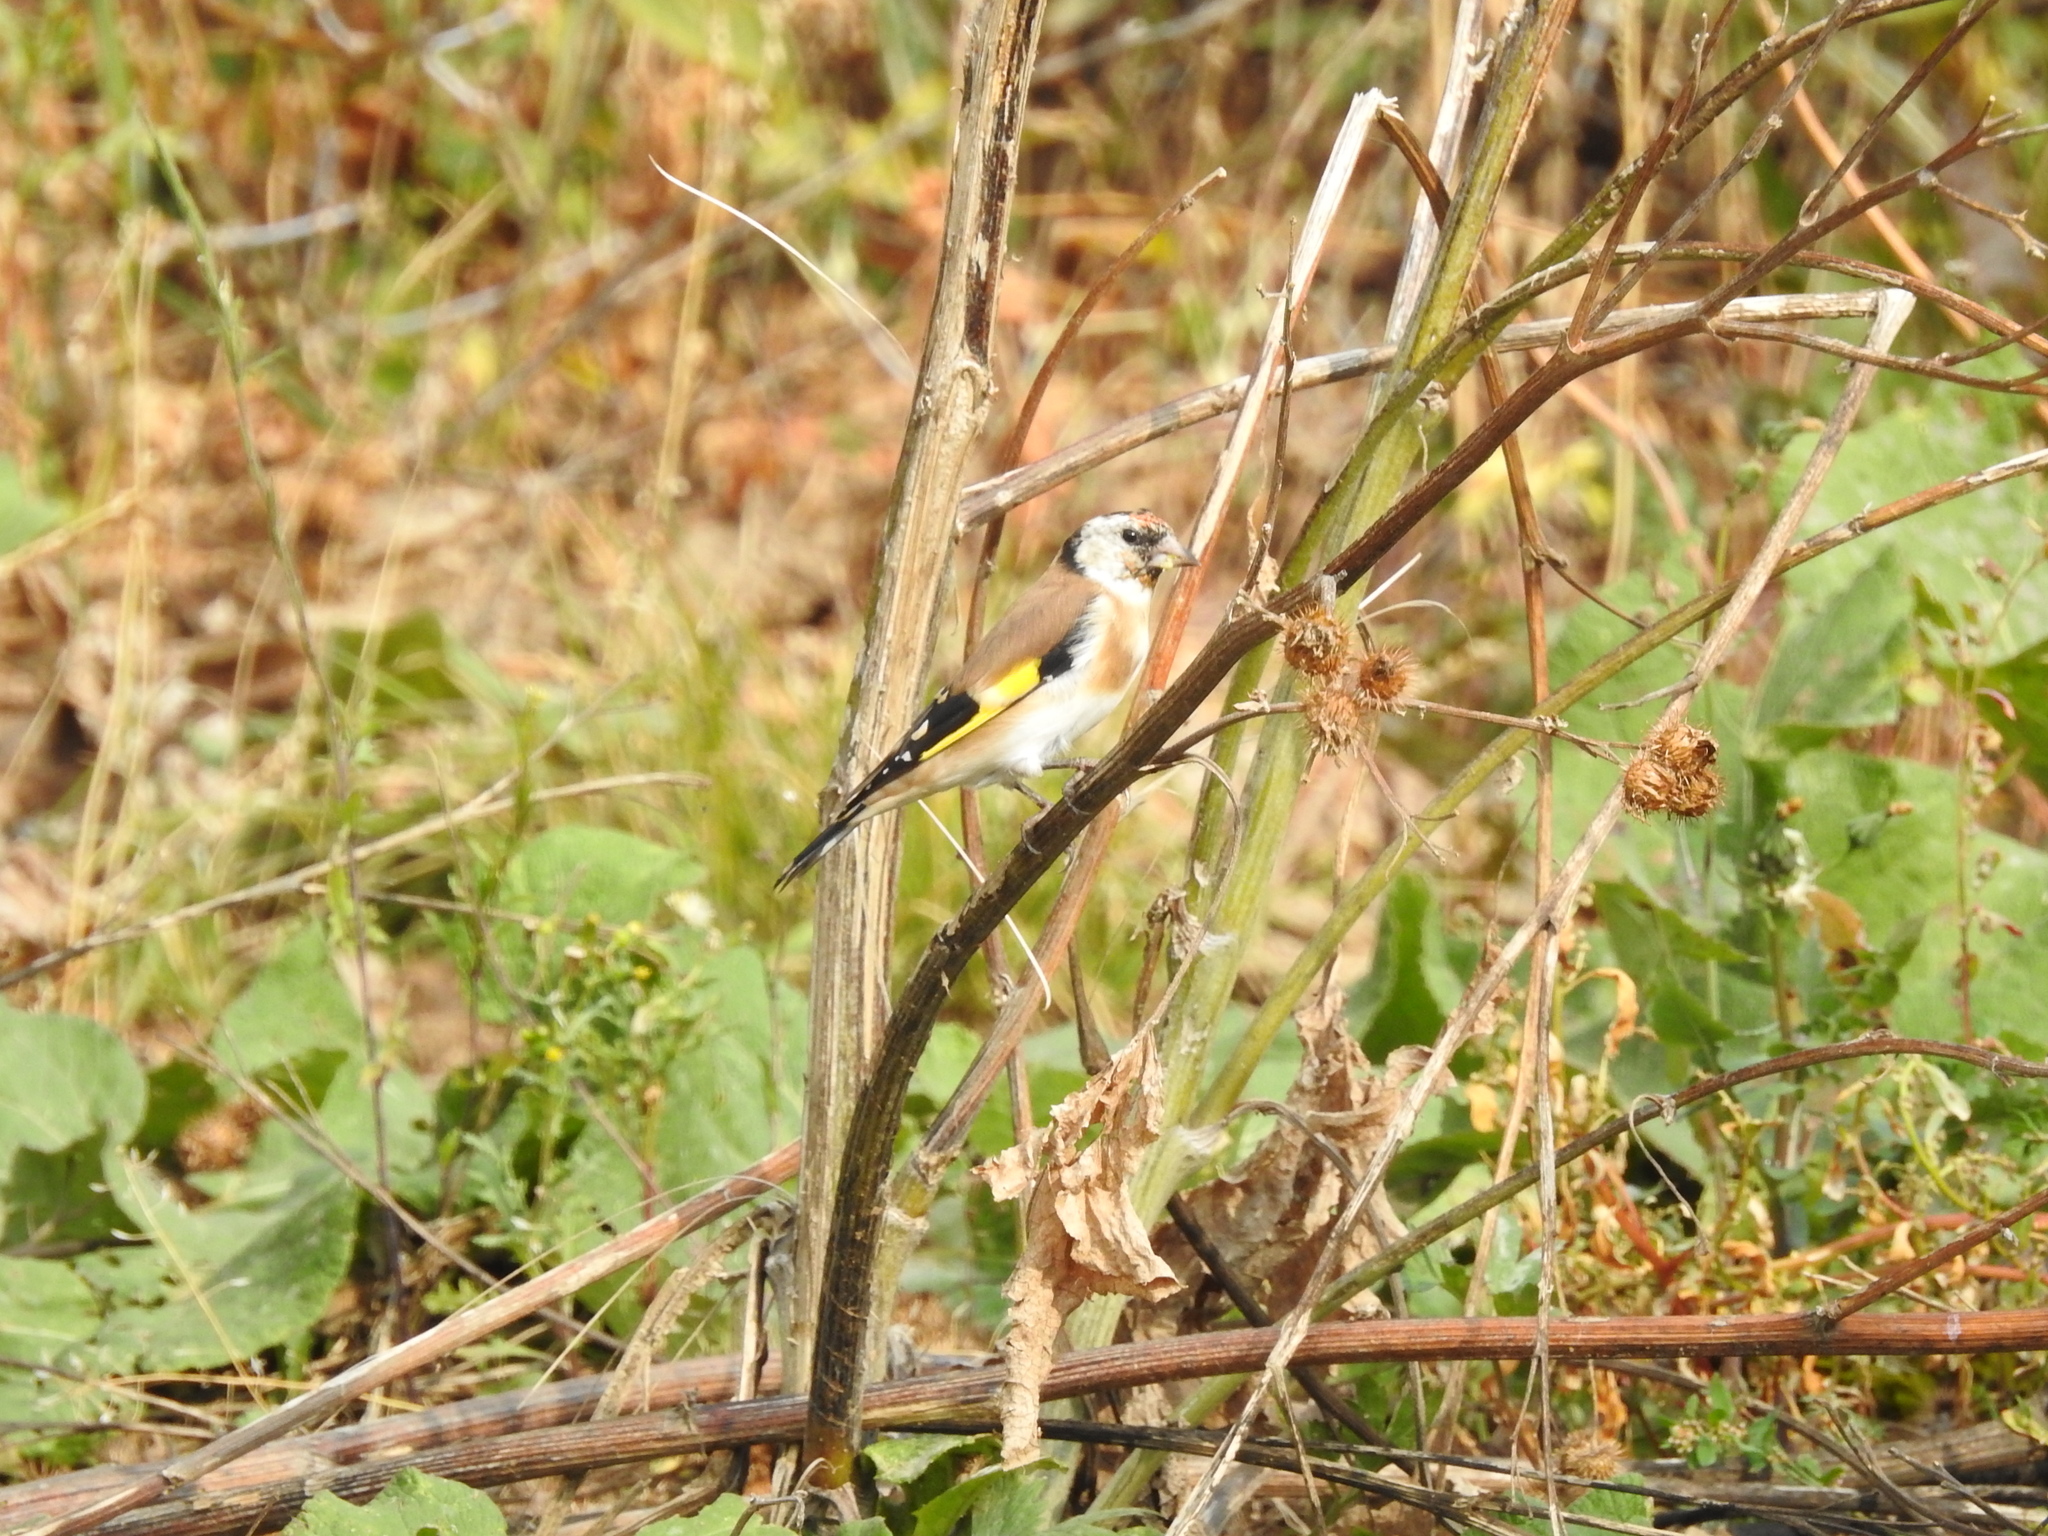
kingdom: Animalia
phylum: Chordata
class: Aves
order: Passeriformes
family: Fringillidae
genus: Carduelis
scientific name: Carduelis carduelis
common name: European goldfinch
